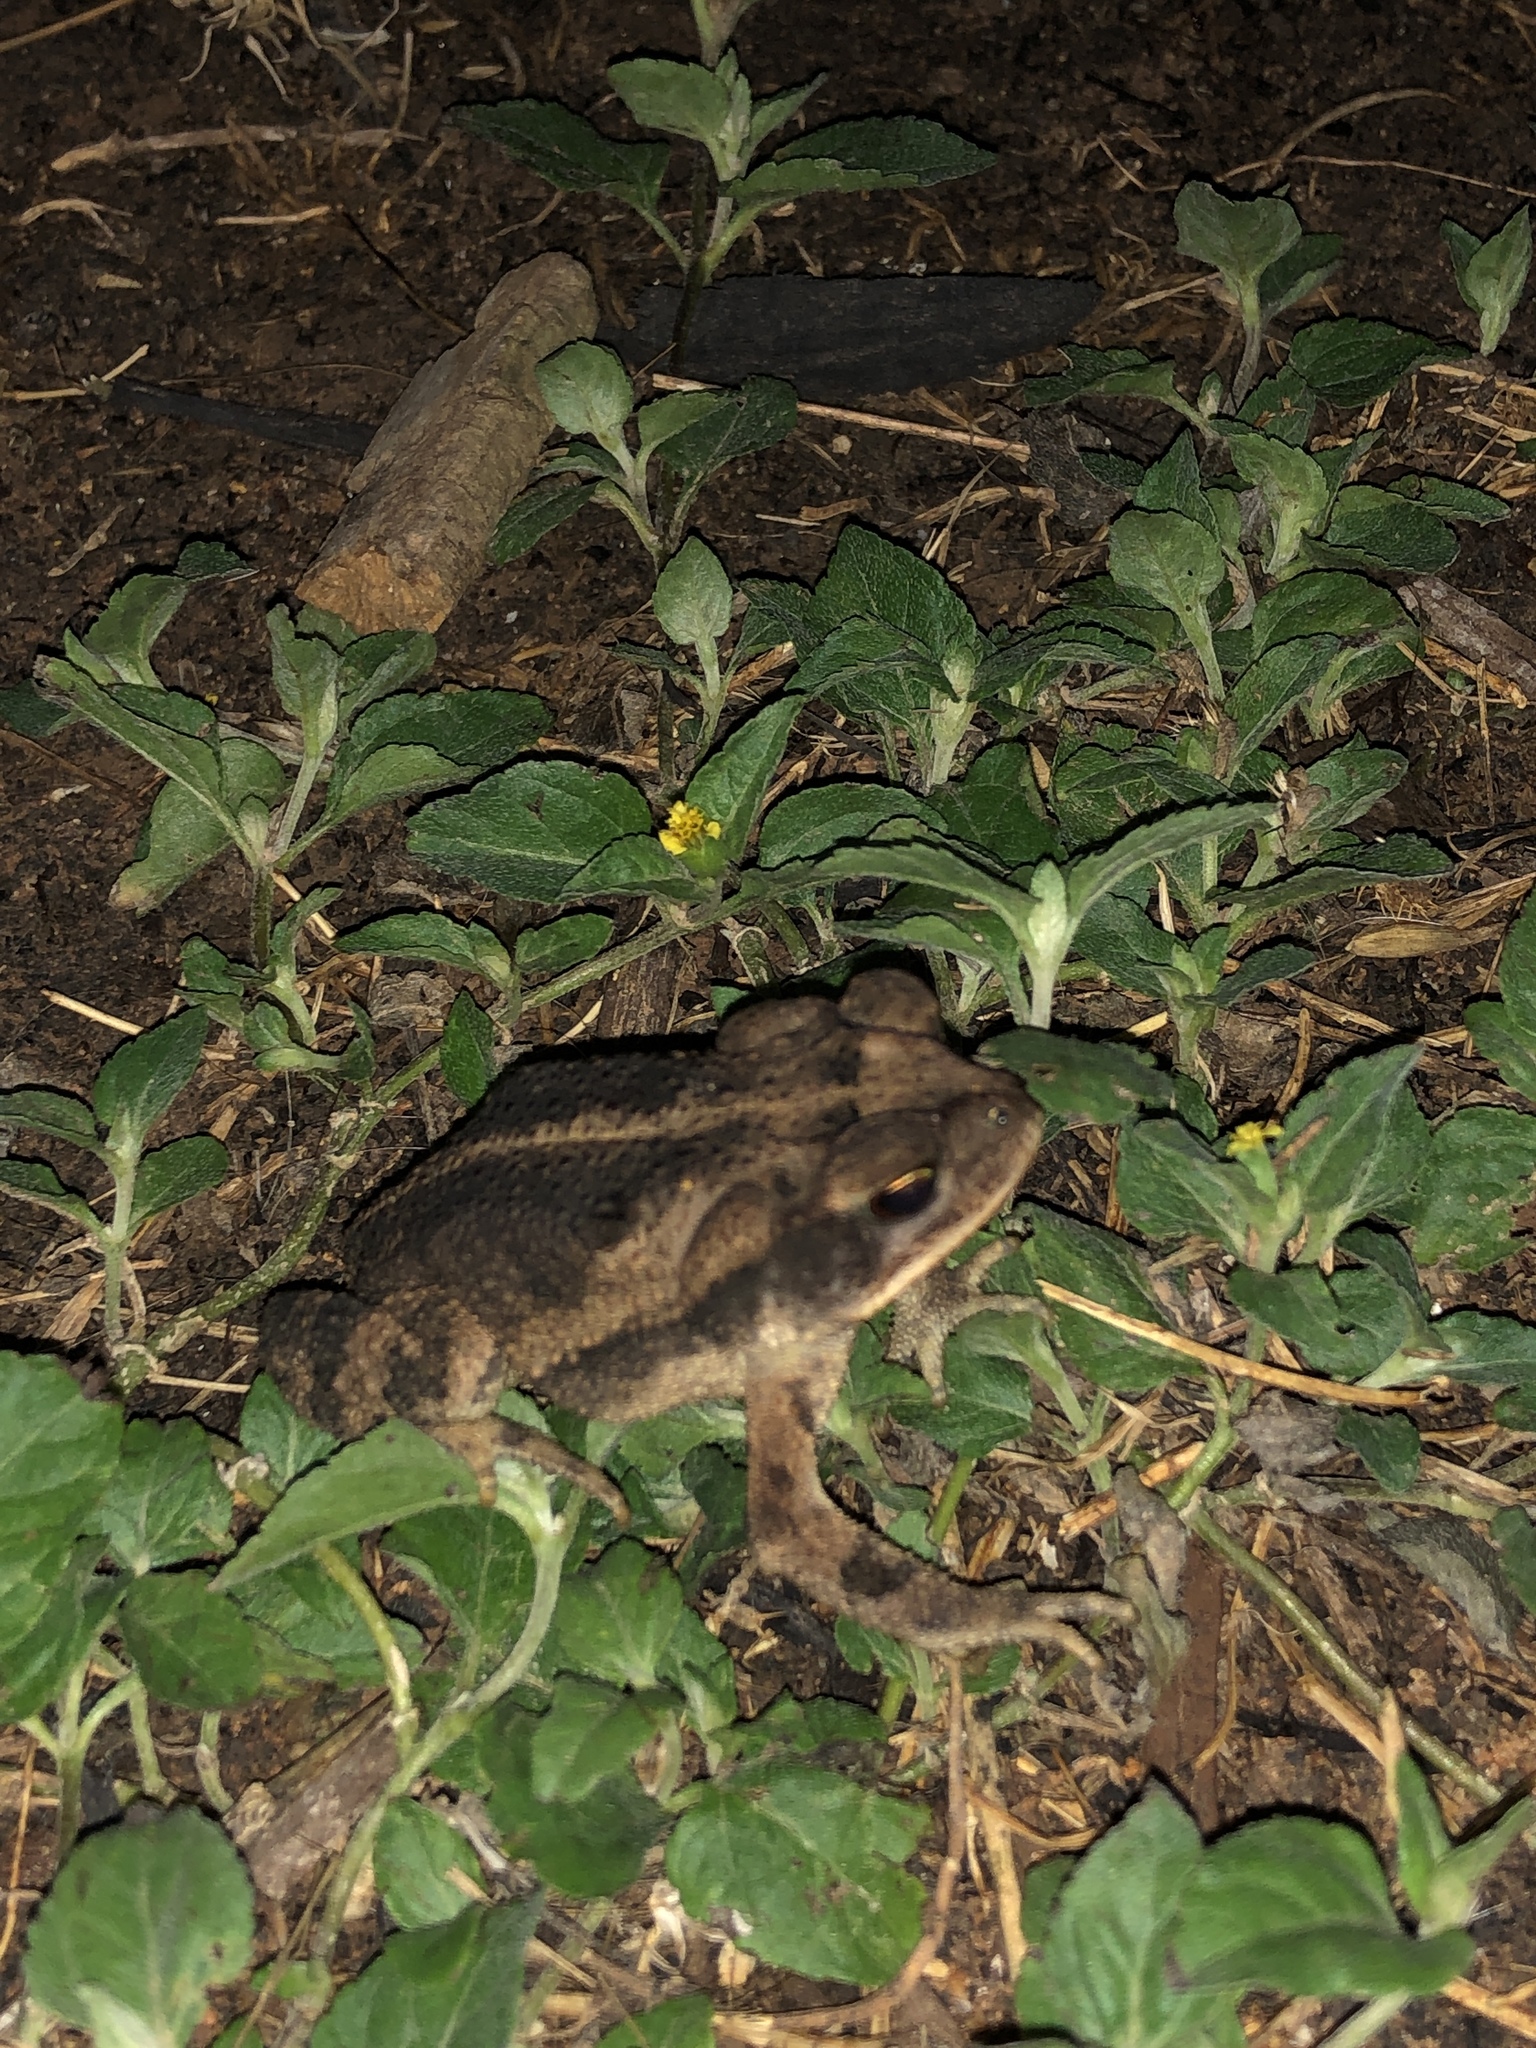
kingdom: Animalia
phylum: Chordata
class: Amphibia
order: Anura
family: Bufonidae
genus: Incilius
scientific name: Incilius nebulifer
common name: Gulf coast toad
